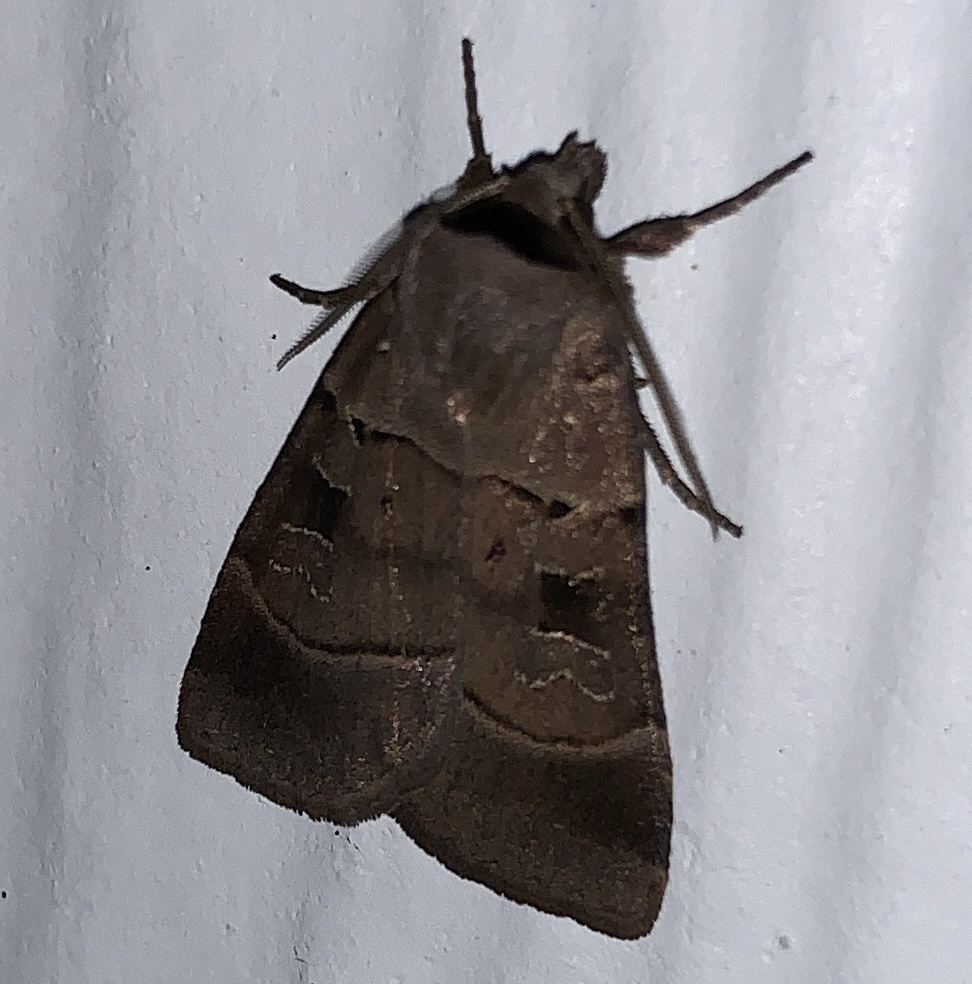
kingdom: Animalia
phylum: Arthropoda
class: Insecta
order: Lepidoptera
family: Noctuidae
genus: Agnorisma
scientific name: Agnorisma badinodis
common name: Pale-banded dart
